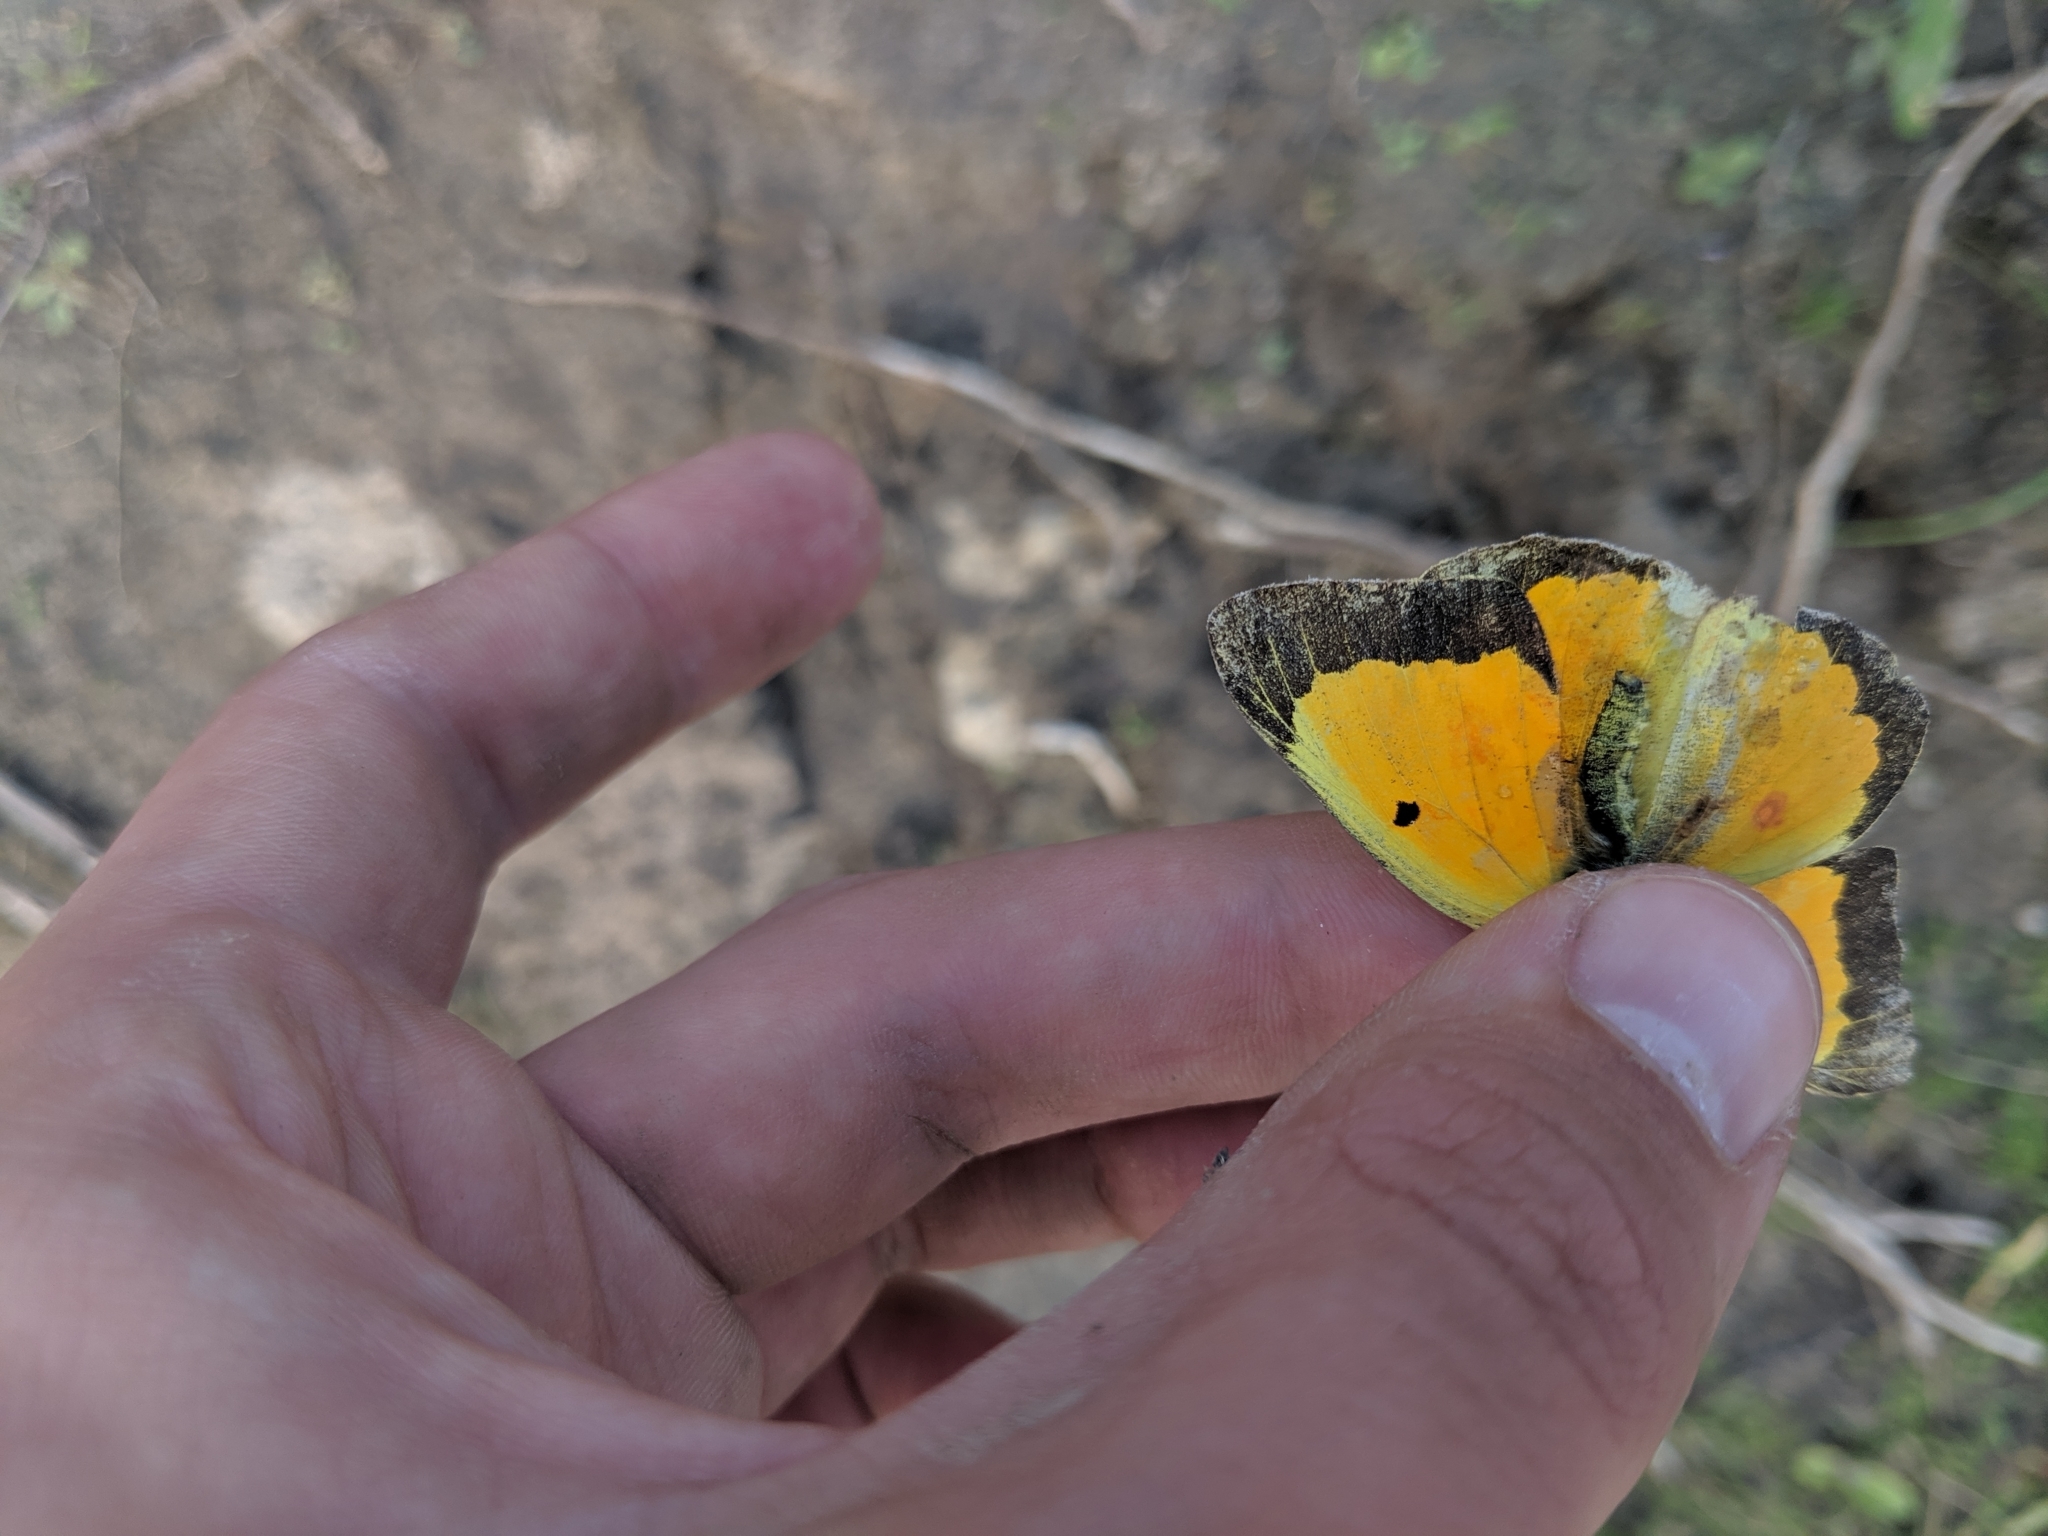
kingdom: Animalia
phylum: Arthropoda
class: Insecta
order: Lepidoptera
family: Pieridae
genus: Colias
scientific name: Colias eurytheme
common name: Alfalfa butterfly
